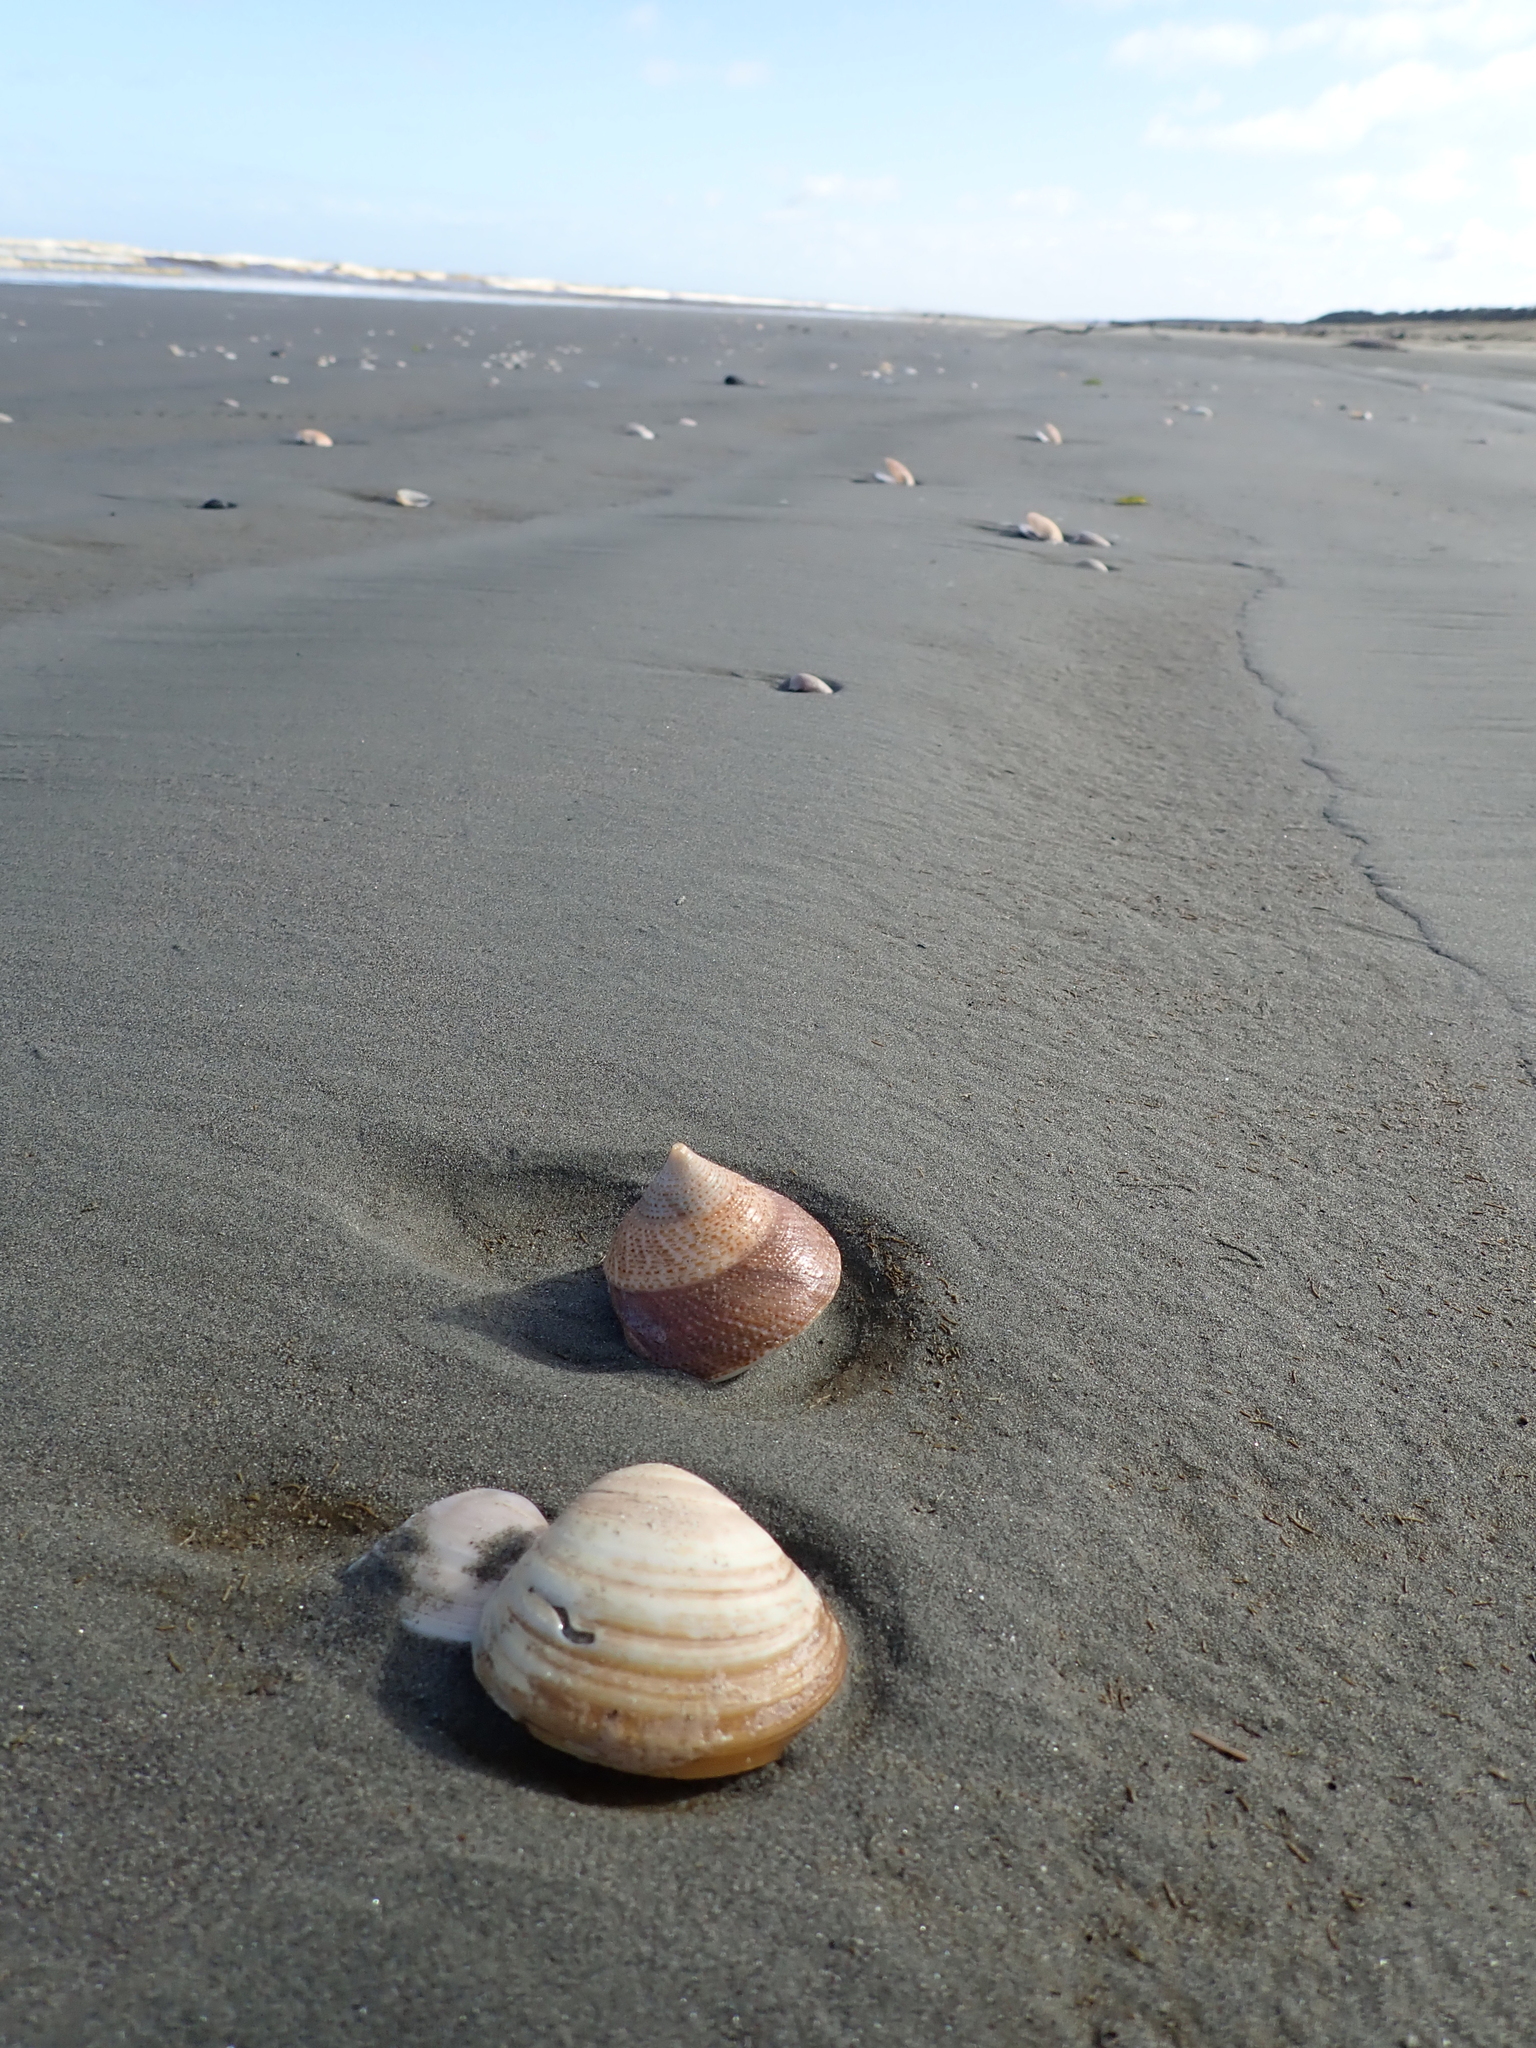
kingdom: Animalia
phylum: Mollusca
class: Gastropoda
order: Trochida
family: Calliostomatidae
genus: Maurea
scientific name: Maurea selecta
